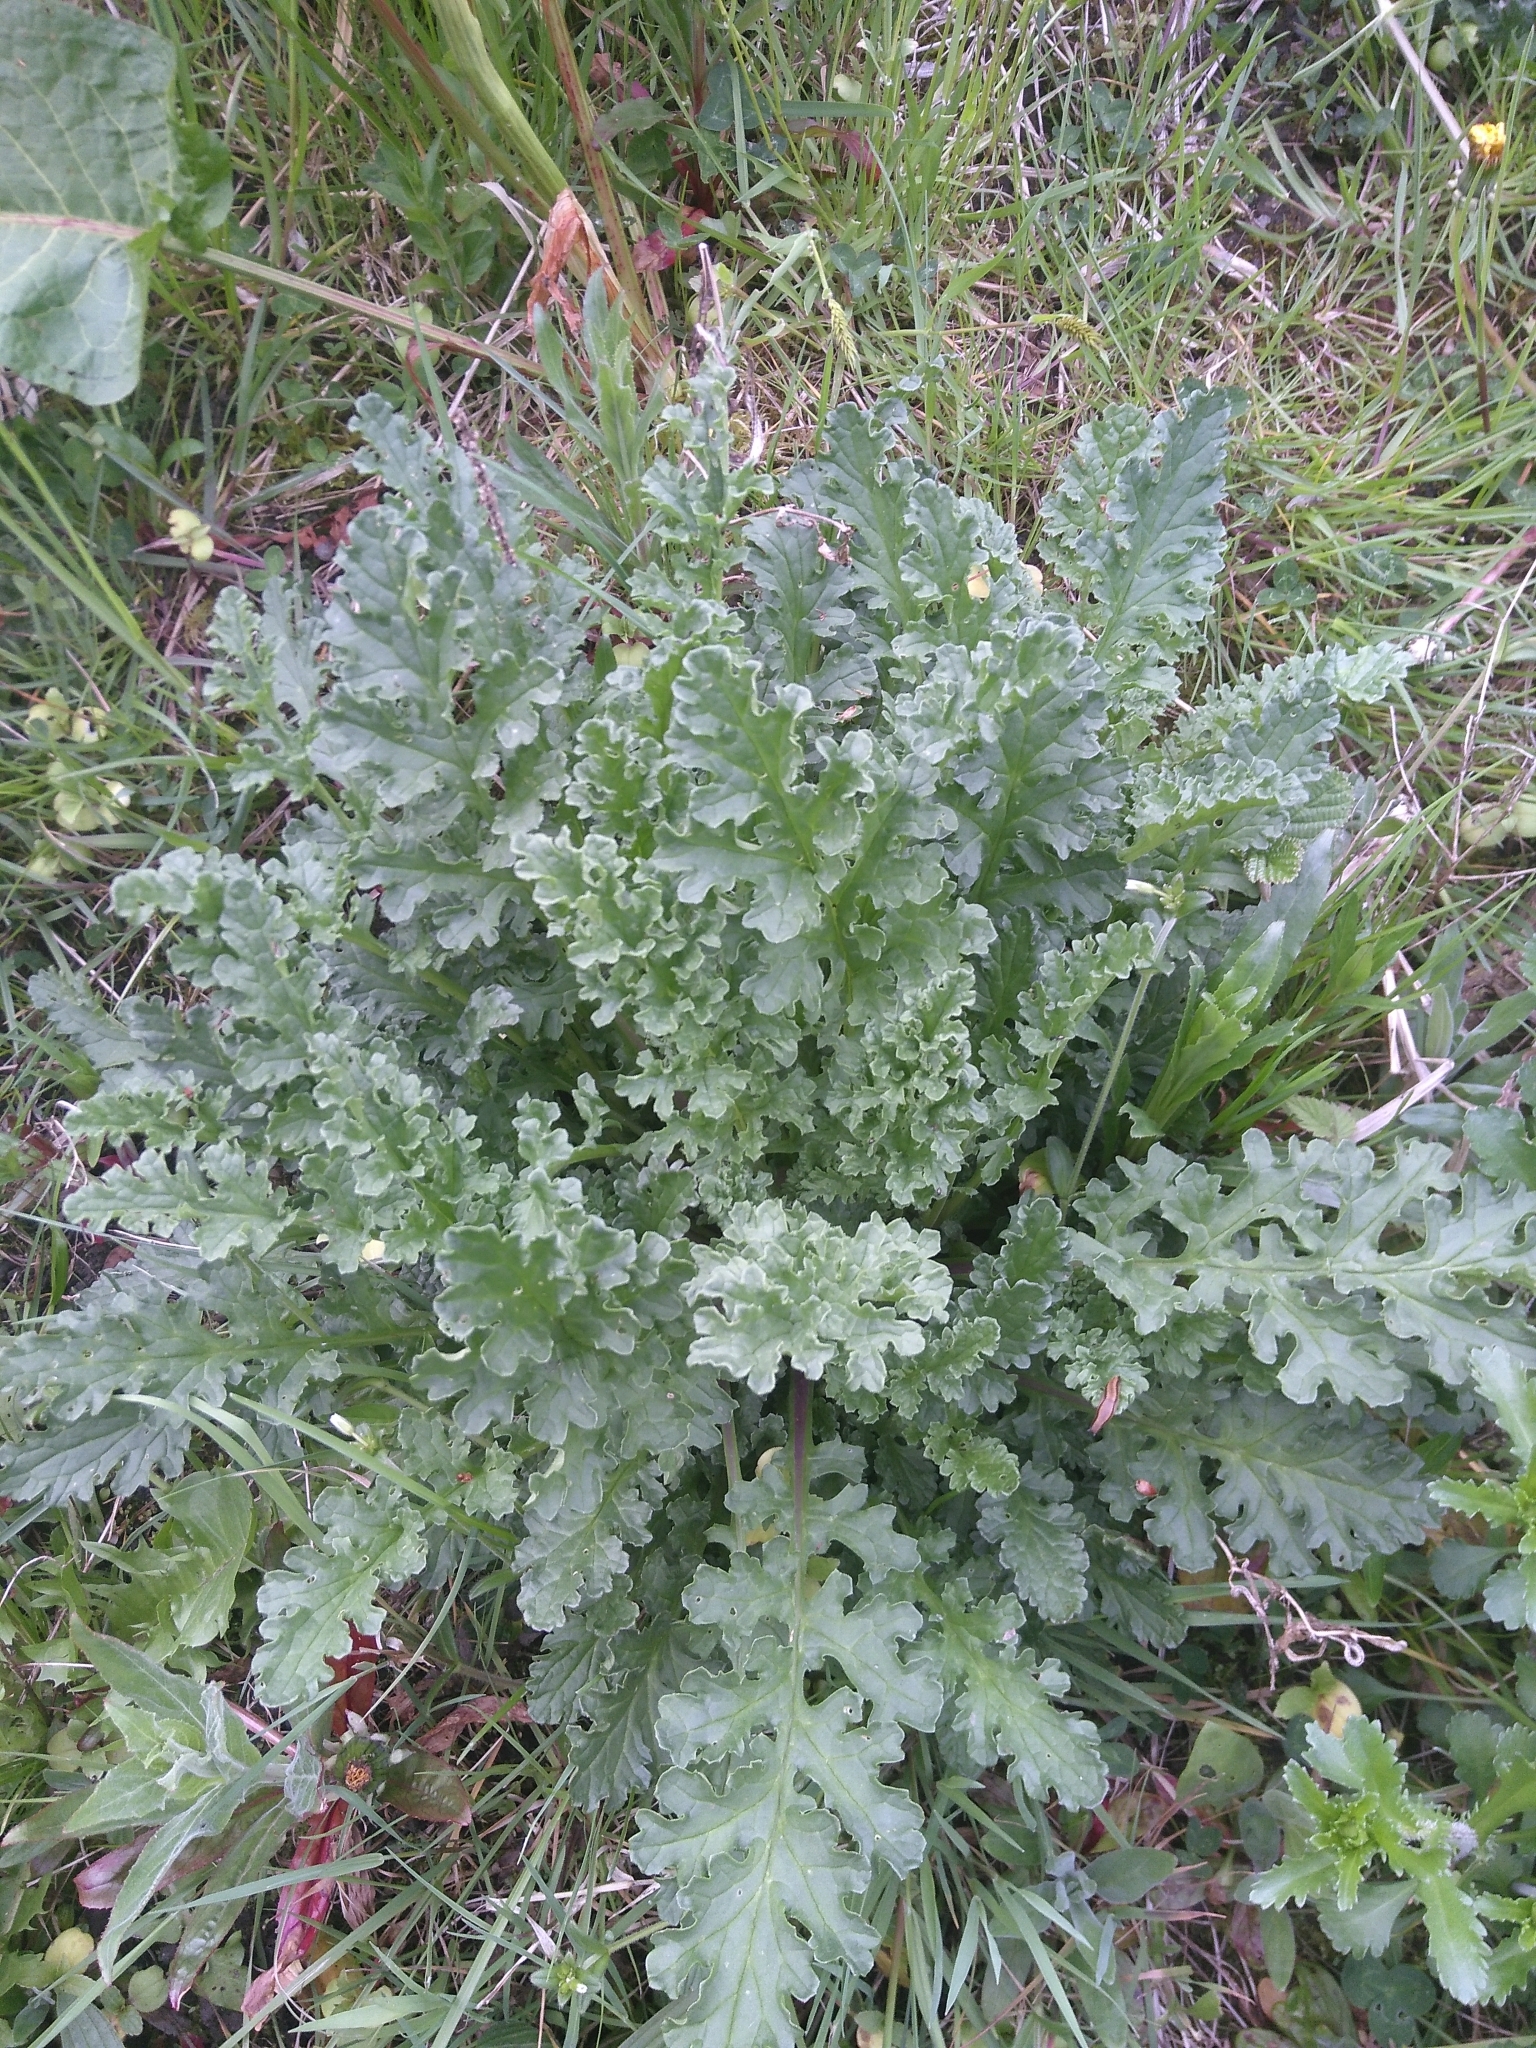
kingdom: Plantae
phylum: Tracheophyta
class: Magnoliopsida
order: Asterales
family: Asteraceae
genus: Jacobaea
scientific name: Jacobaea vulgaris
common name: Stinking willie
